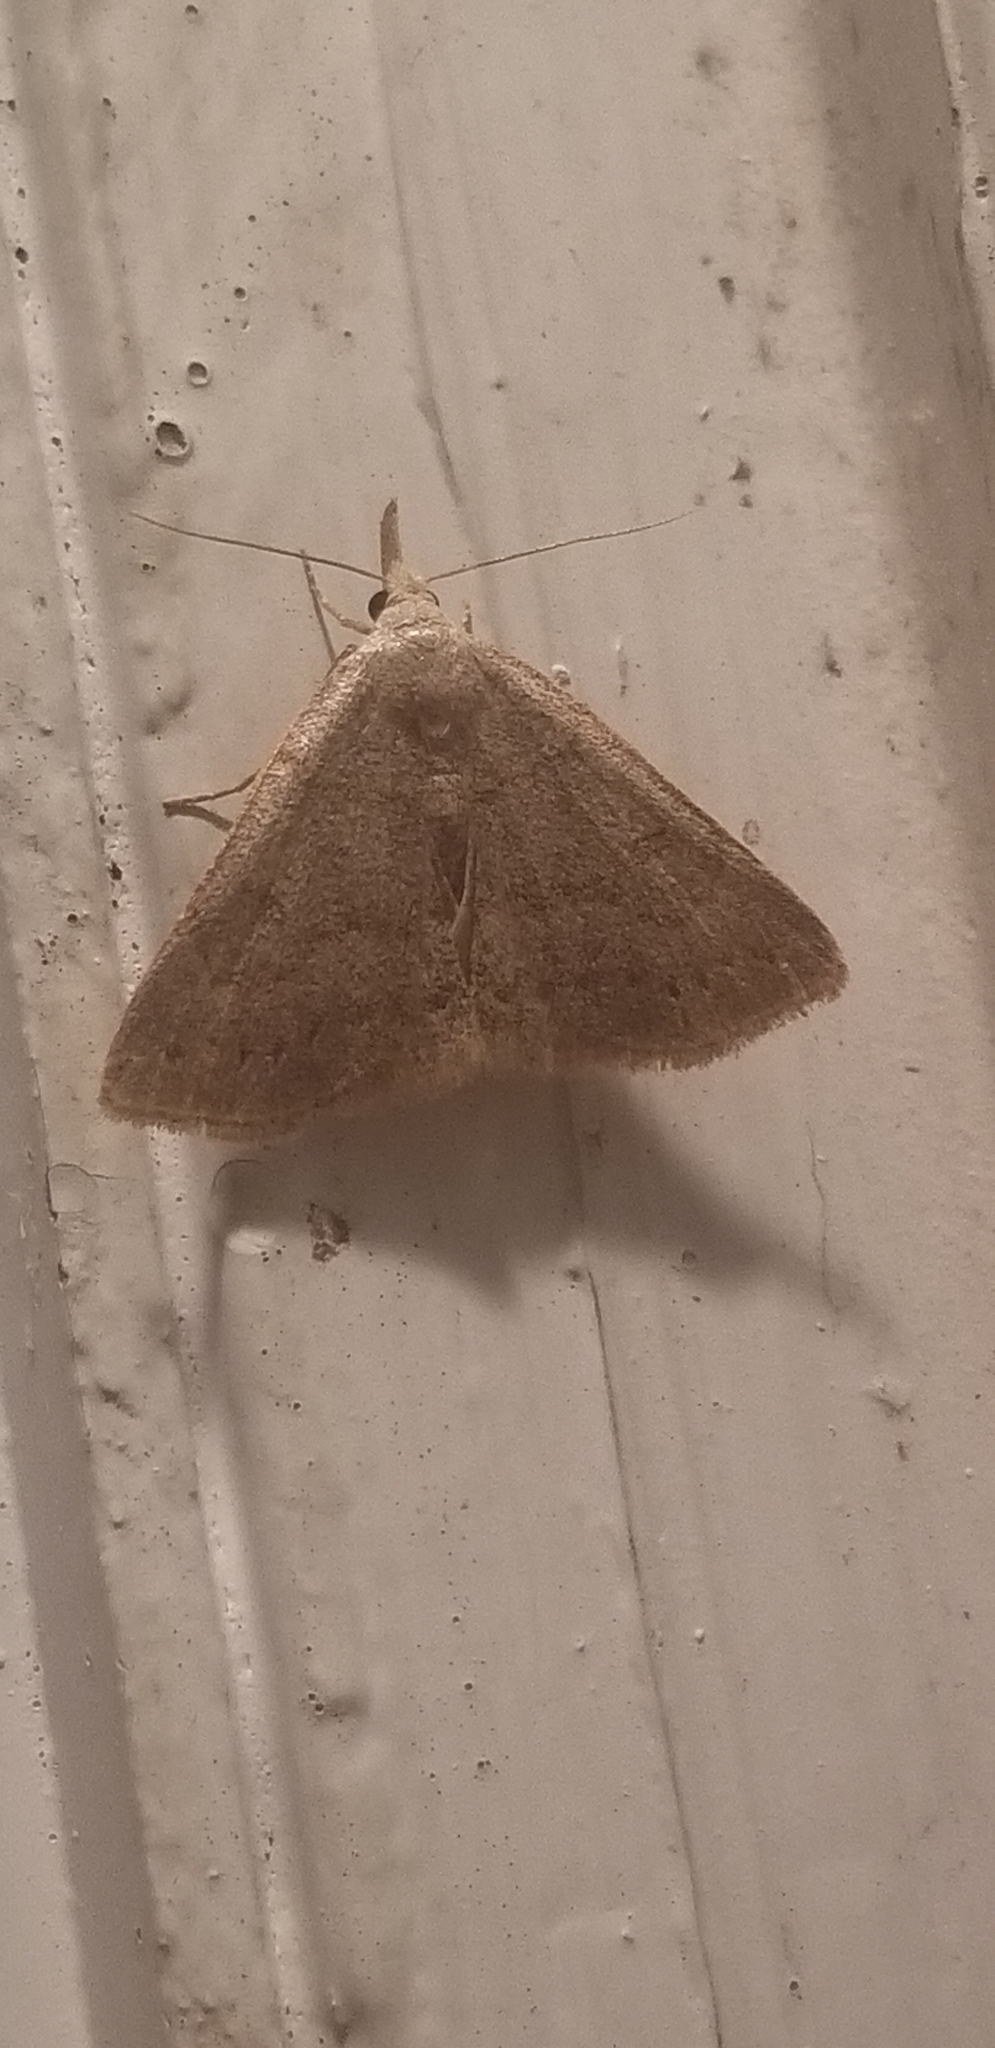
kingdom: Animalia
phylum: Arthropoda
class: Insecta
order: Lepidoptera
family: Erebidae
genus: Macrochilo
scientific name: Macrochilo morbidalis
